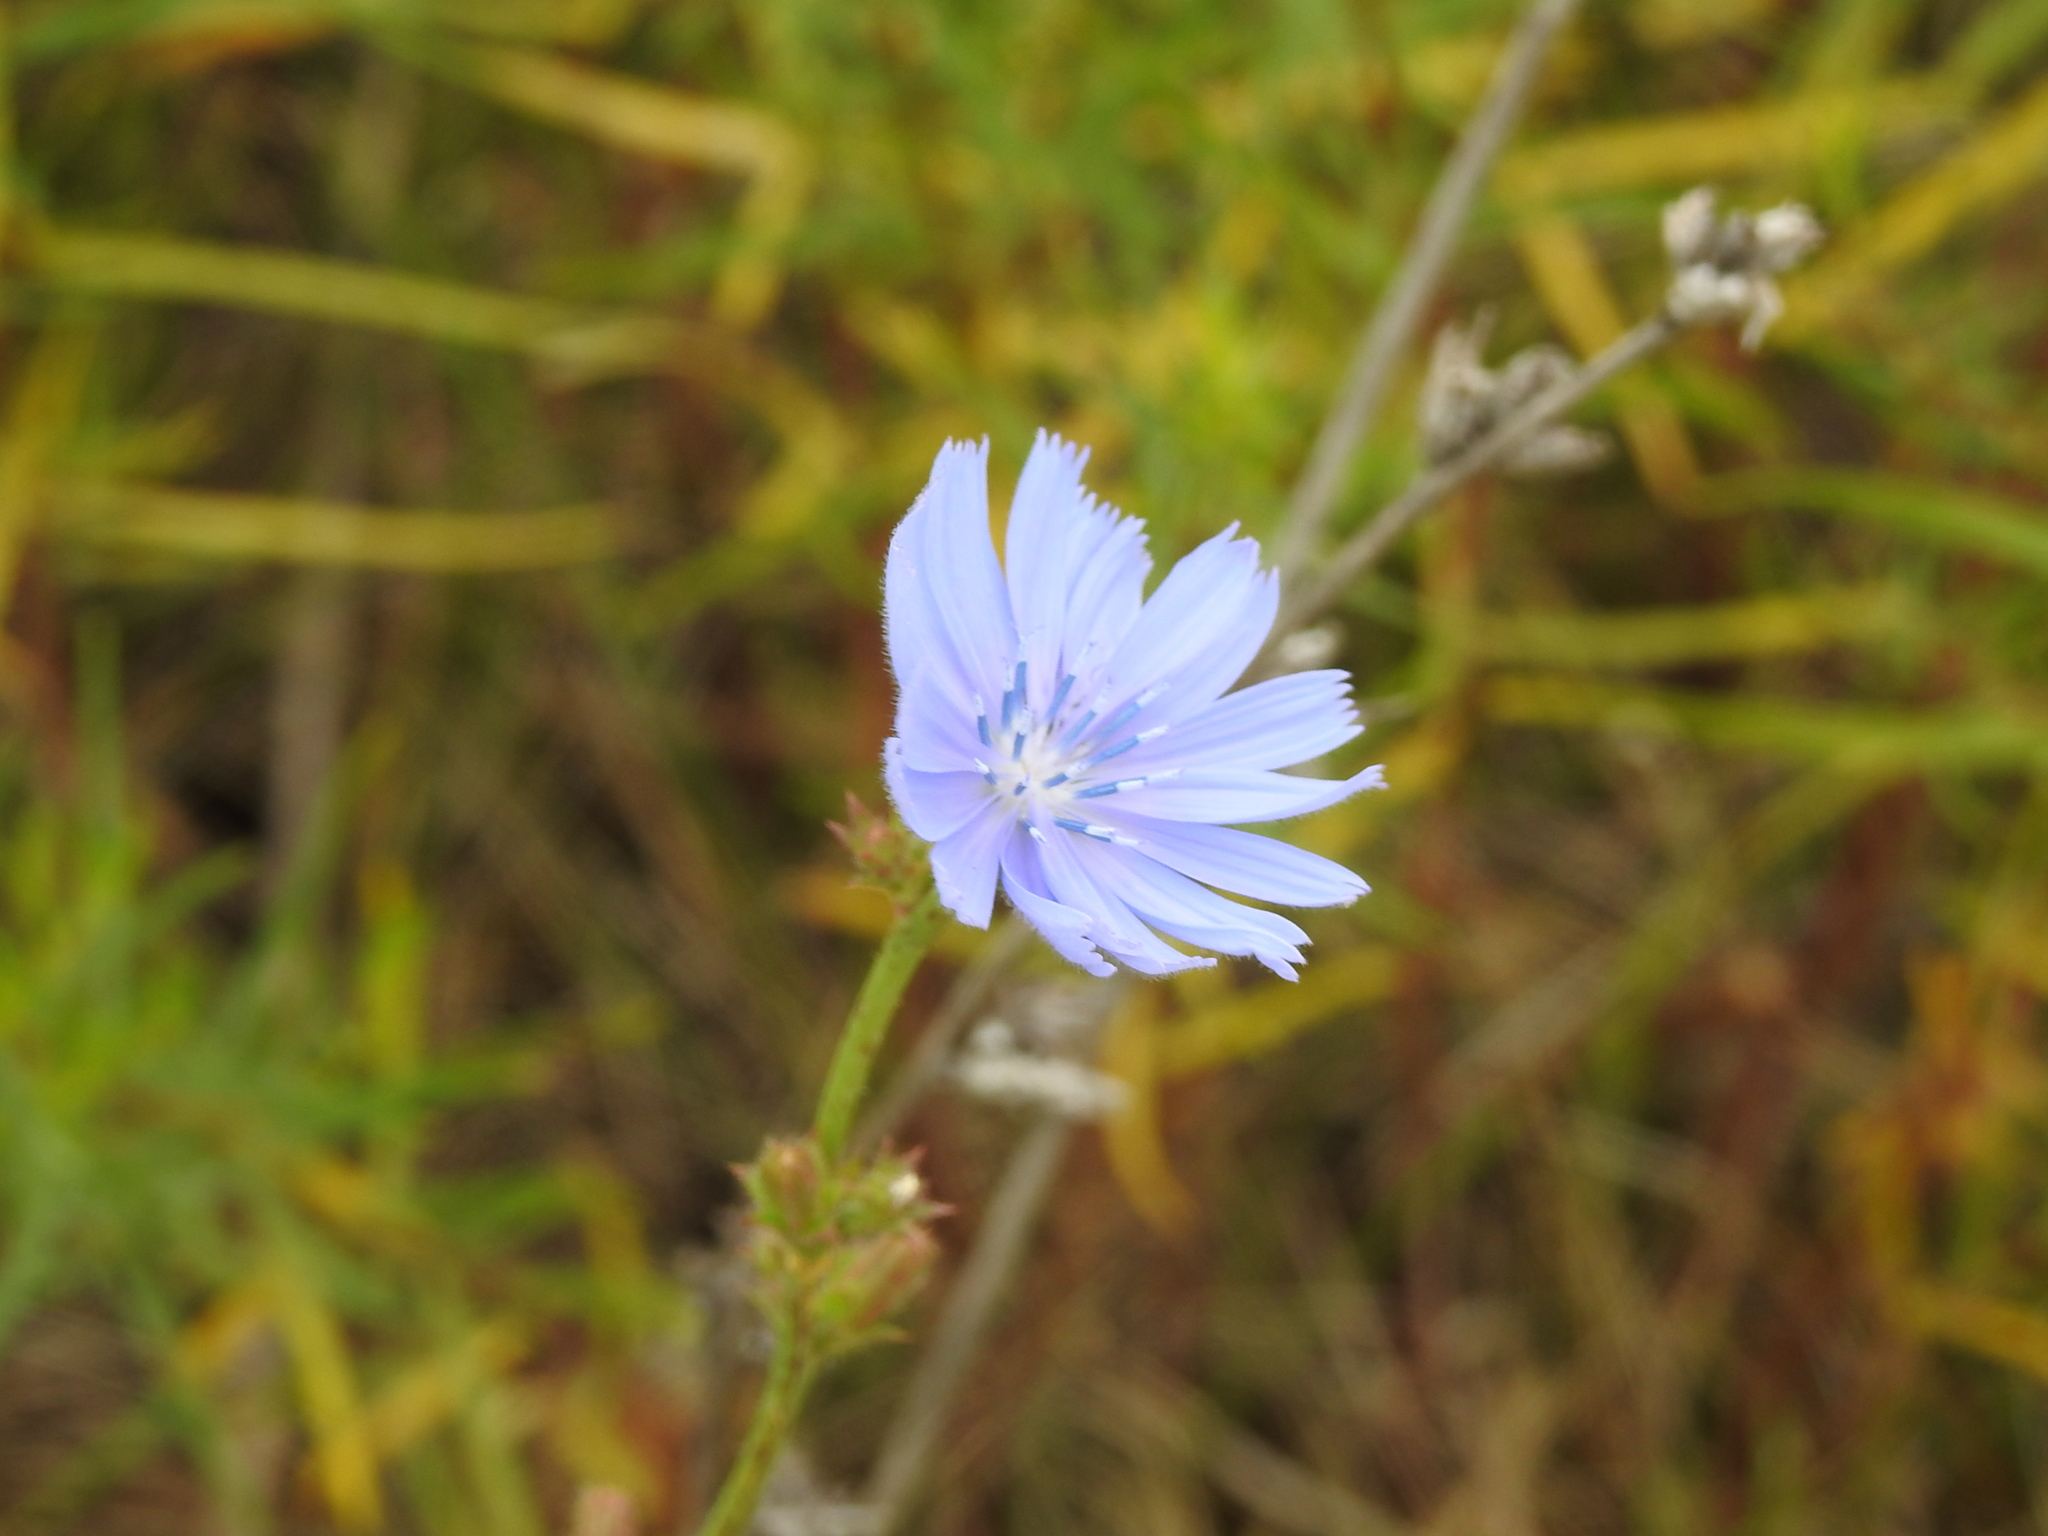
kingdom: Plantae
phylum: Tracheophyta
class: Magnoliopsida
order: Asterales
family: Asteraceae
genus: Cichorium
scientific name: Cichorium intybus
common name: Chicory
